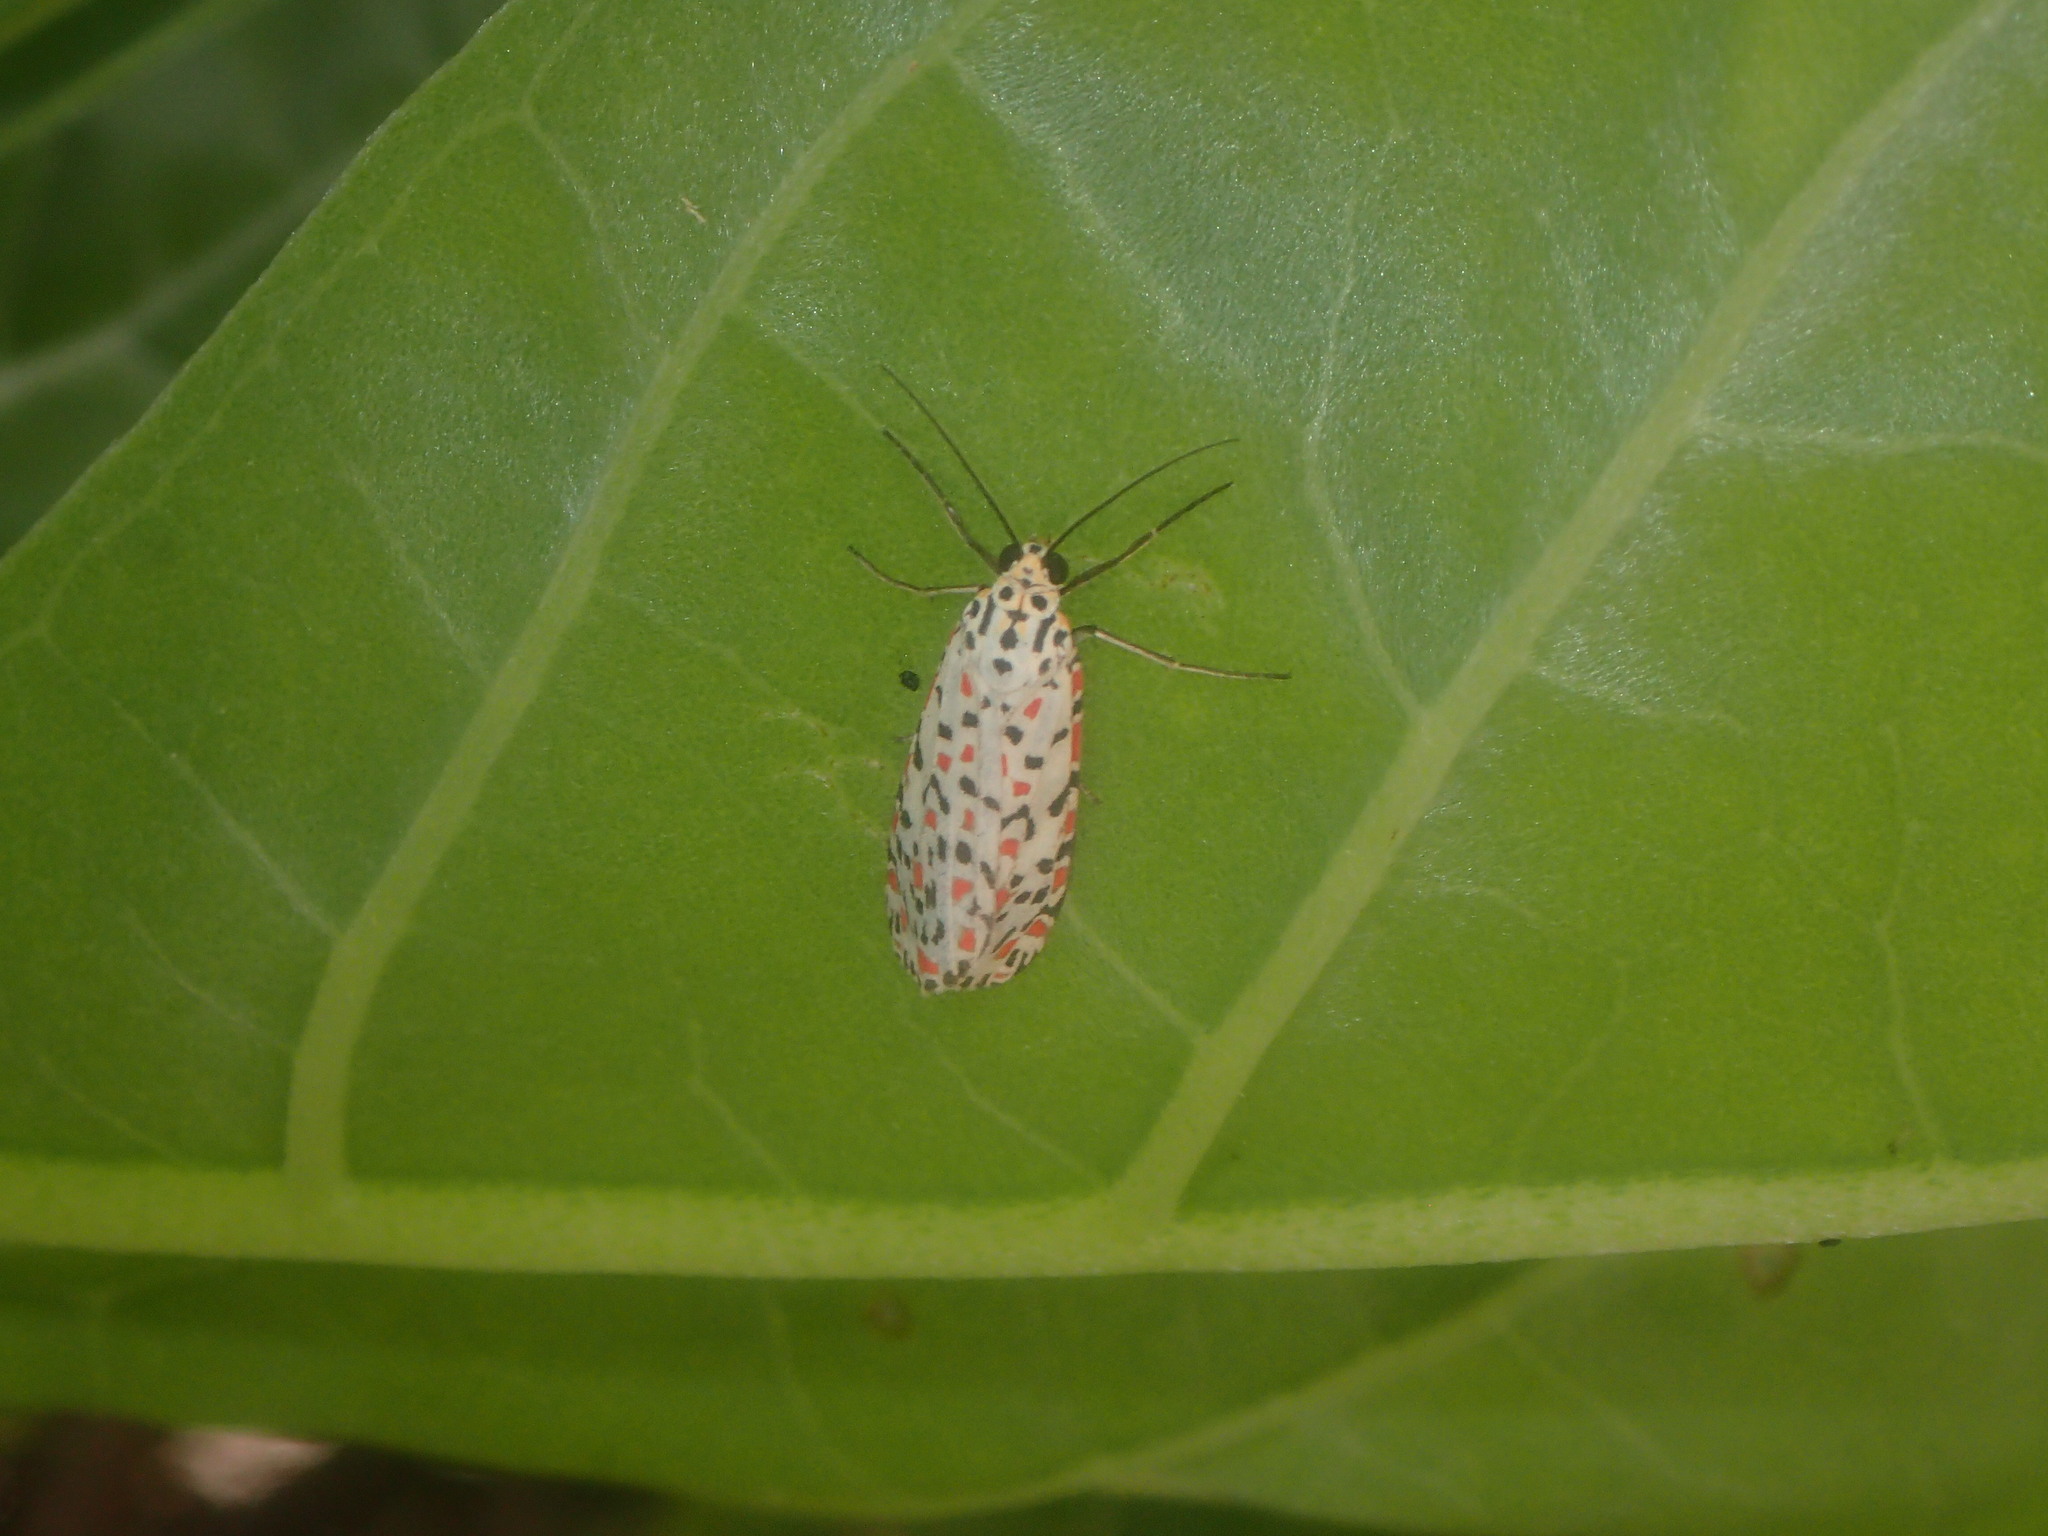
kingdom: Animalia
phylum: Arthropoda
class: Insecta
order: Lepidoptera
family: Erebidae
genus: Utetheisa
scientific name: Utetheisa pulchelloides
